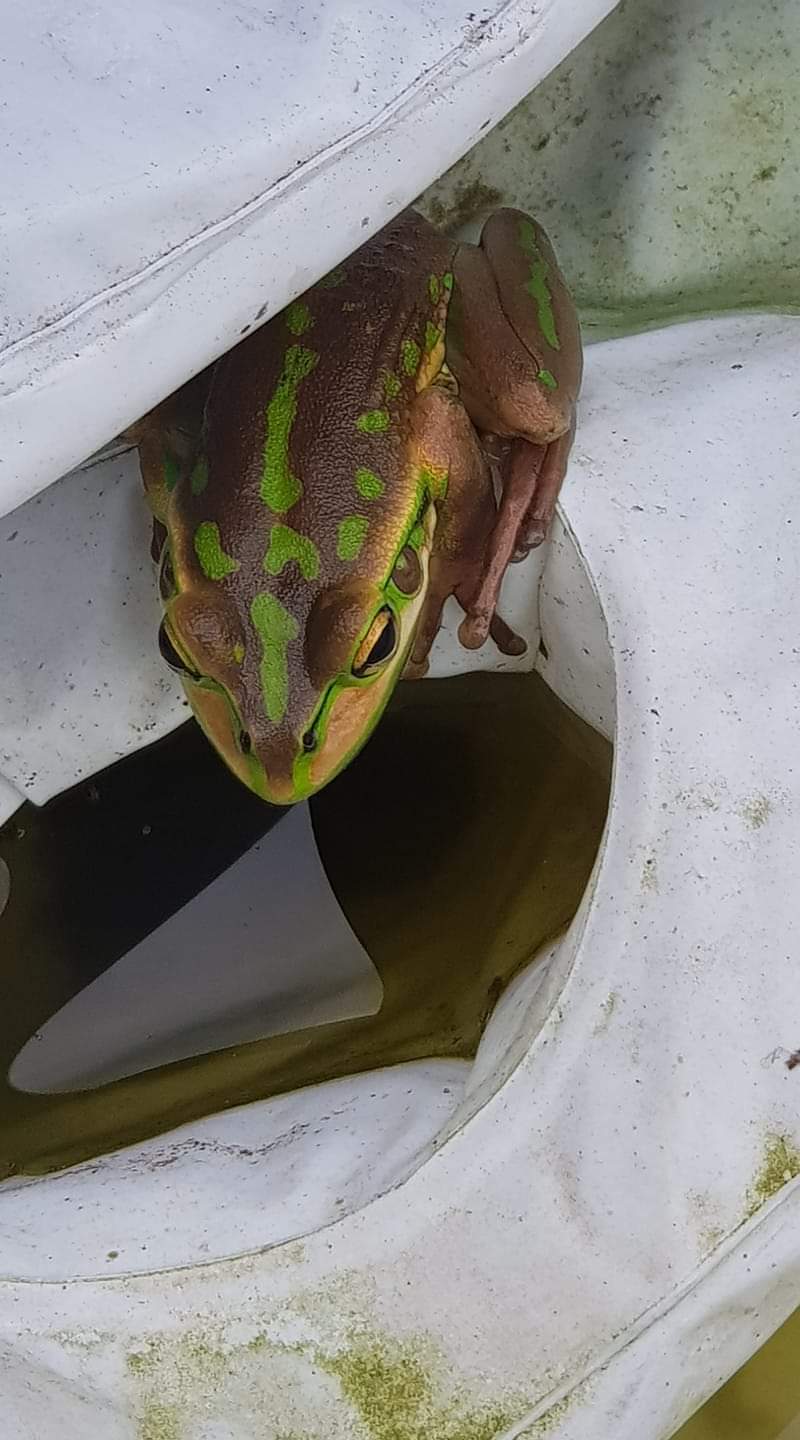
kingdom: Animalia
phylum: Chordata
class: Amphibia
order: Anura
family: Pelodryadidae
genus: Ranoidea
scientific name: Ranoidea aurea
